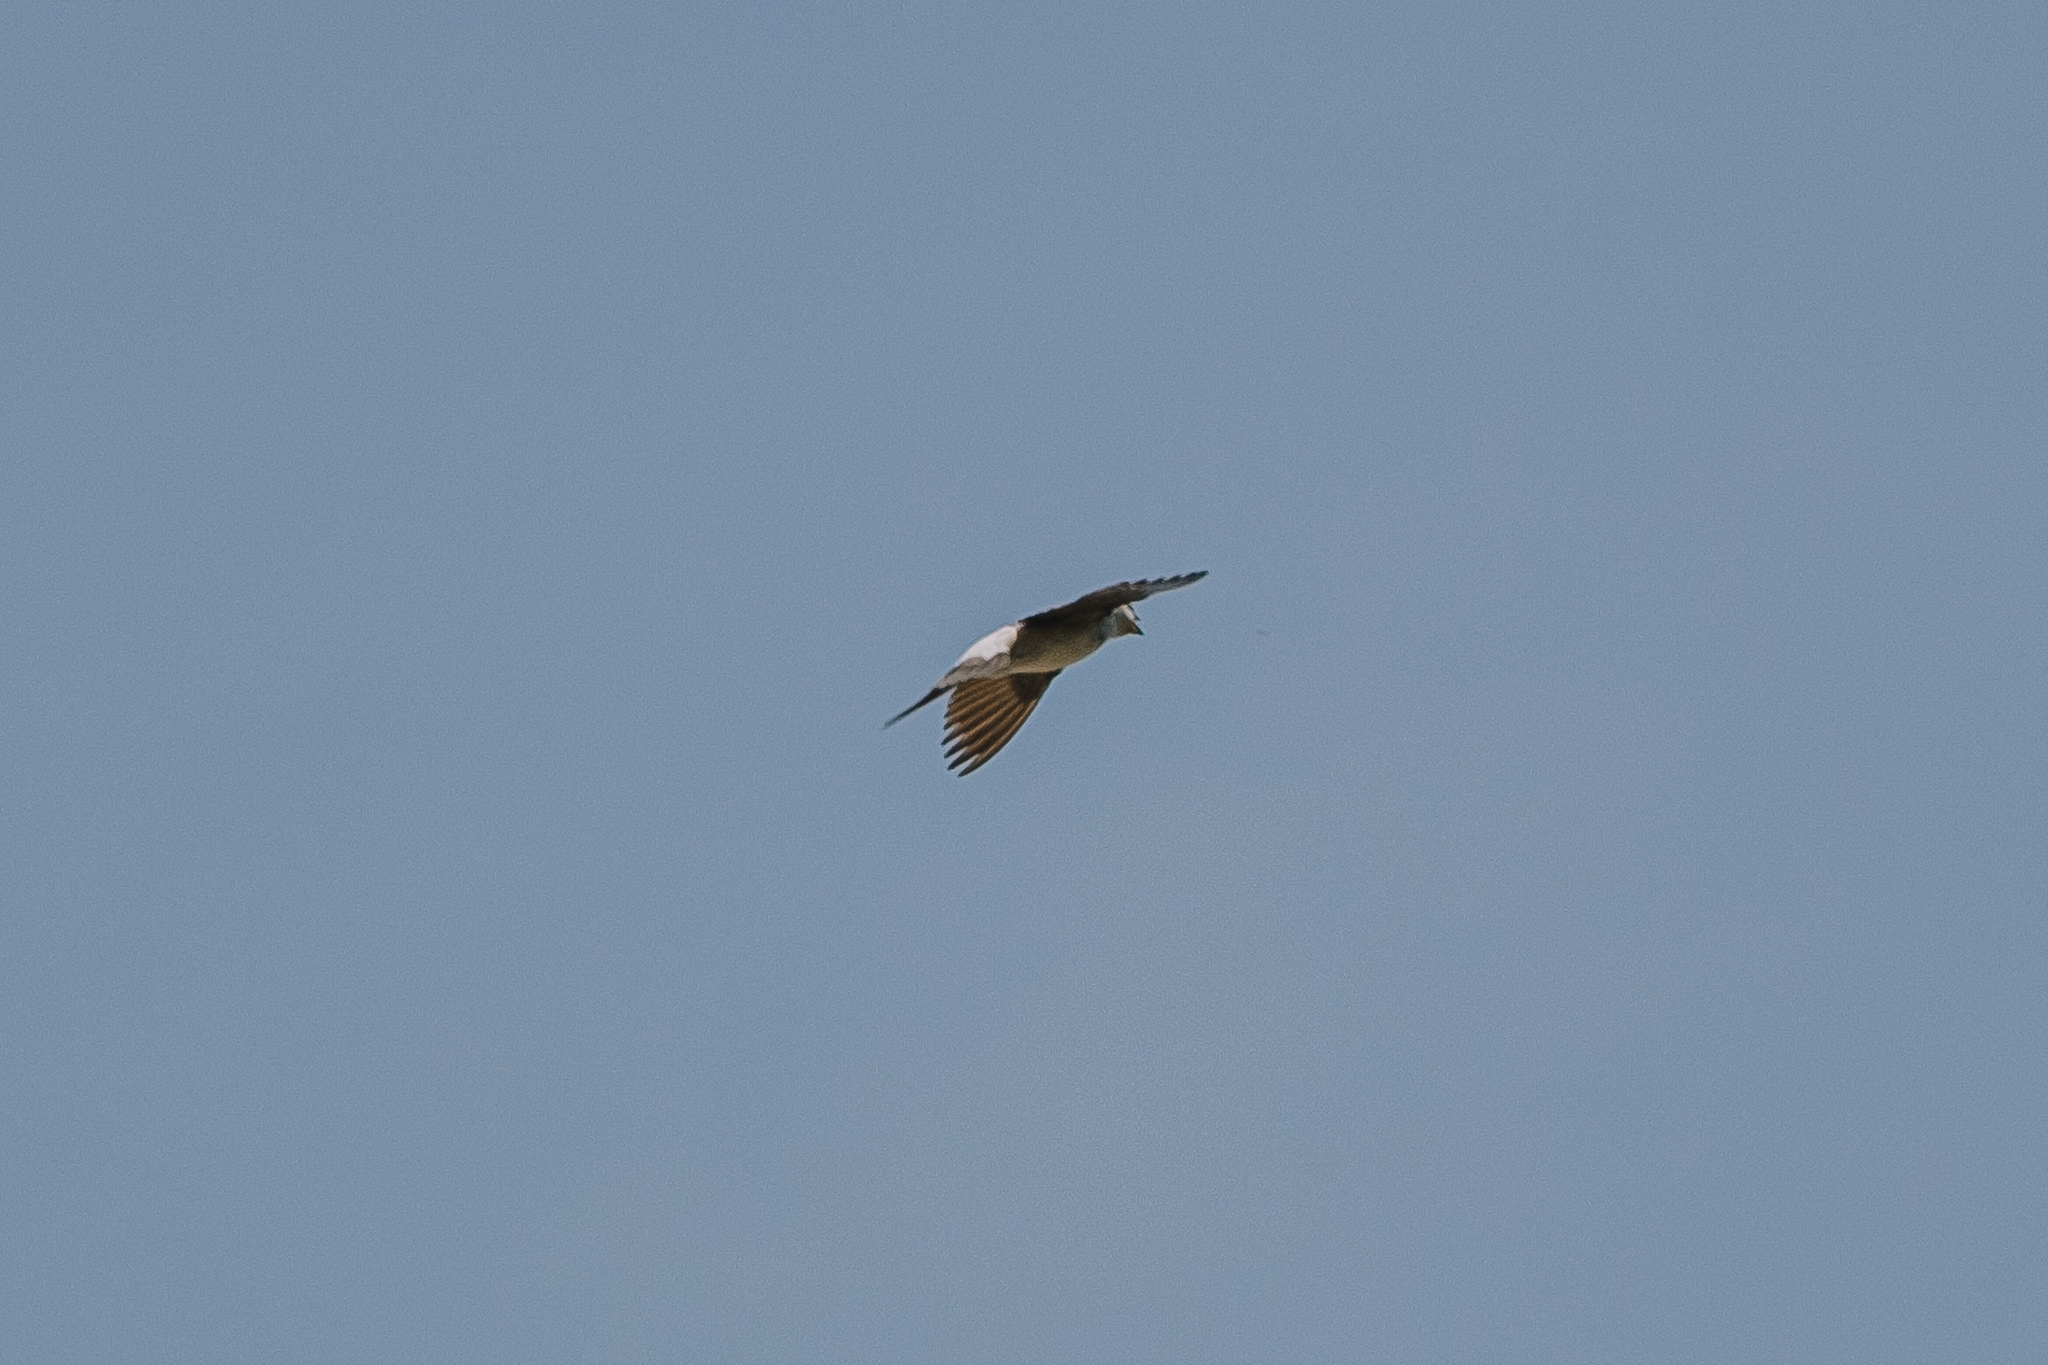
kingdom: Animalia
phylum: Chordata
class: Aves
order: Passeriformes
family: Hirundinidae
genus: Delichon
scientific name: Delichon urbicum
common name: Common house martin
